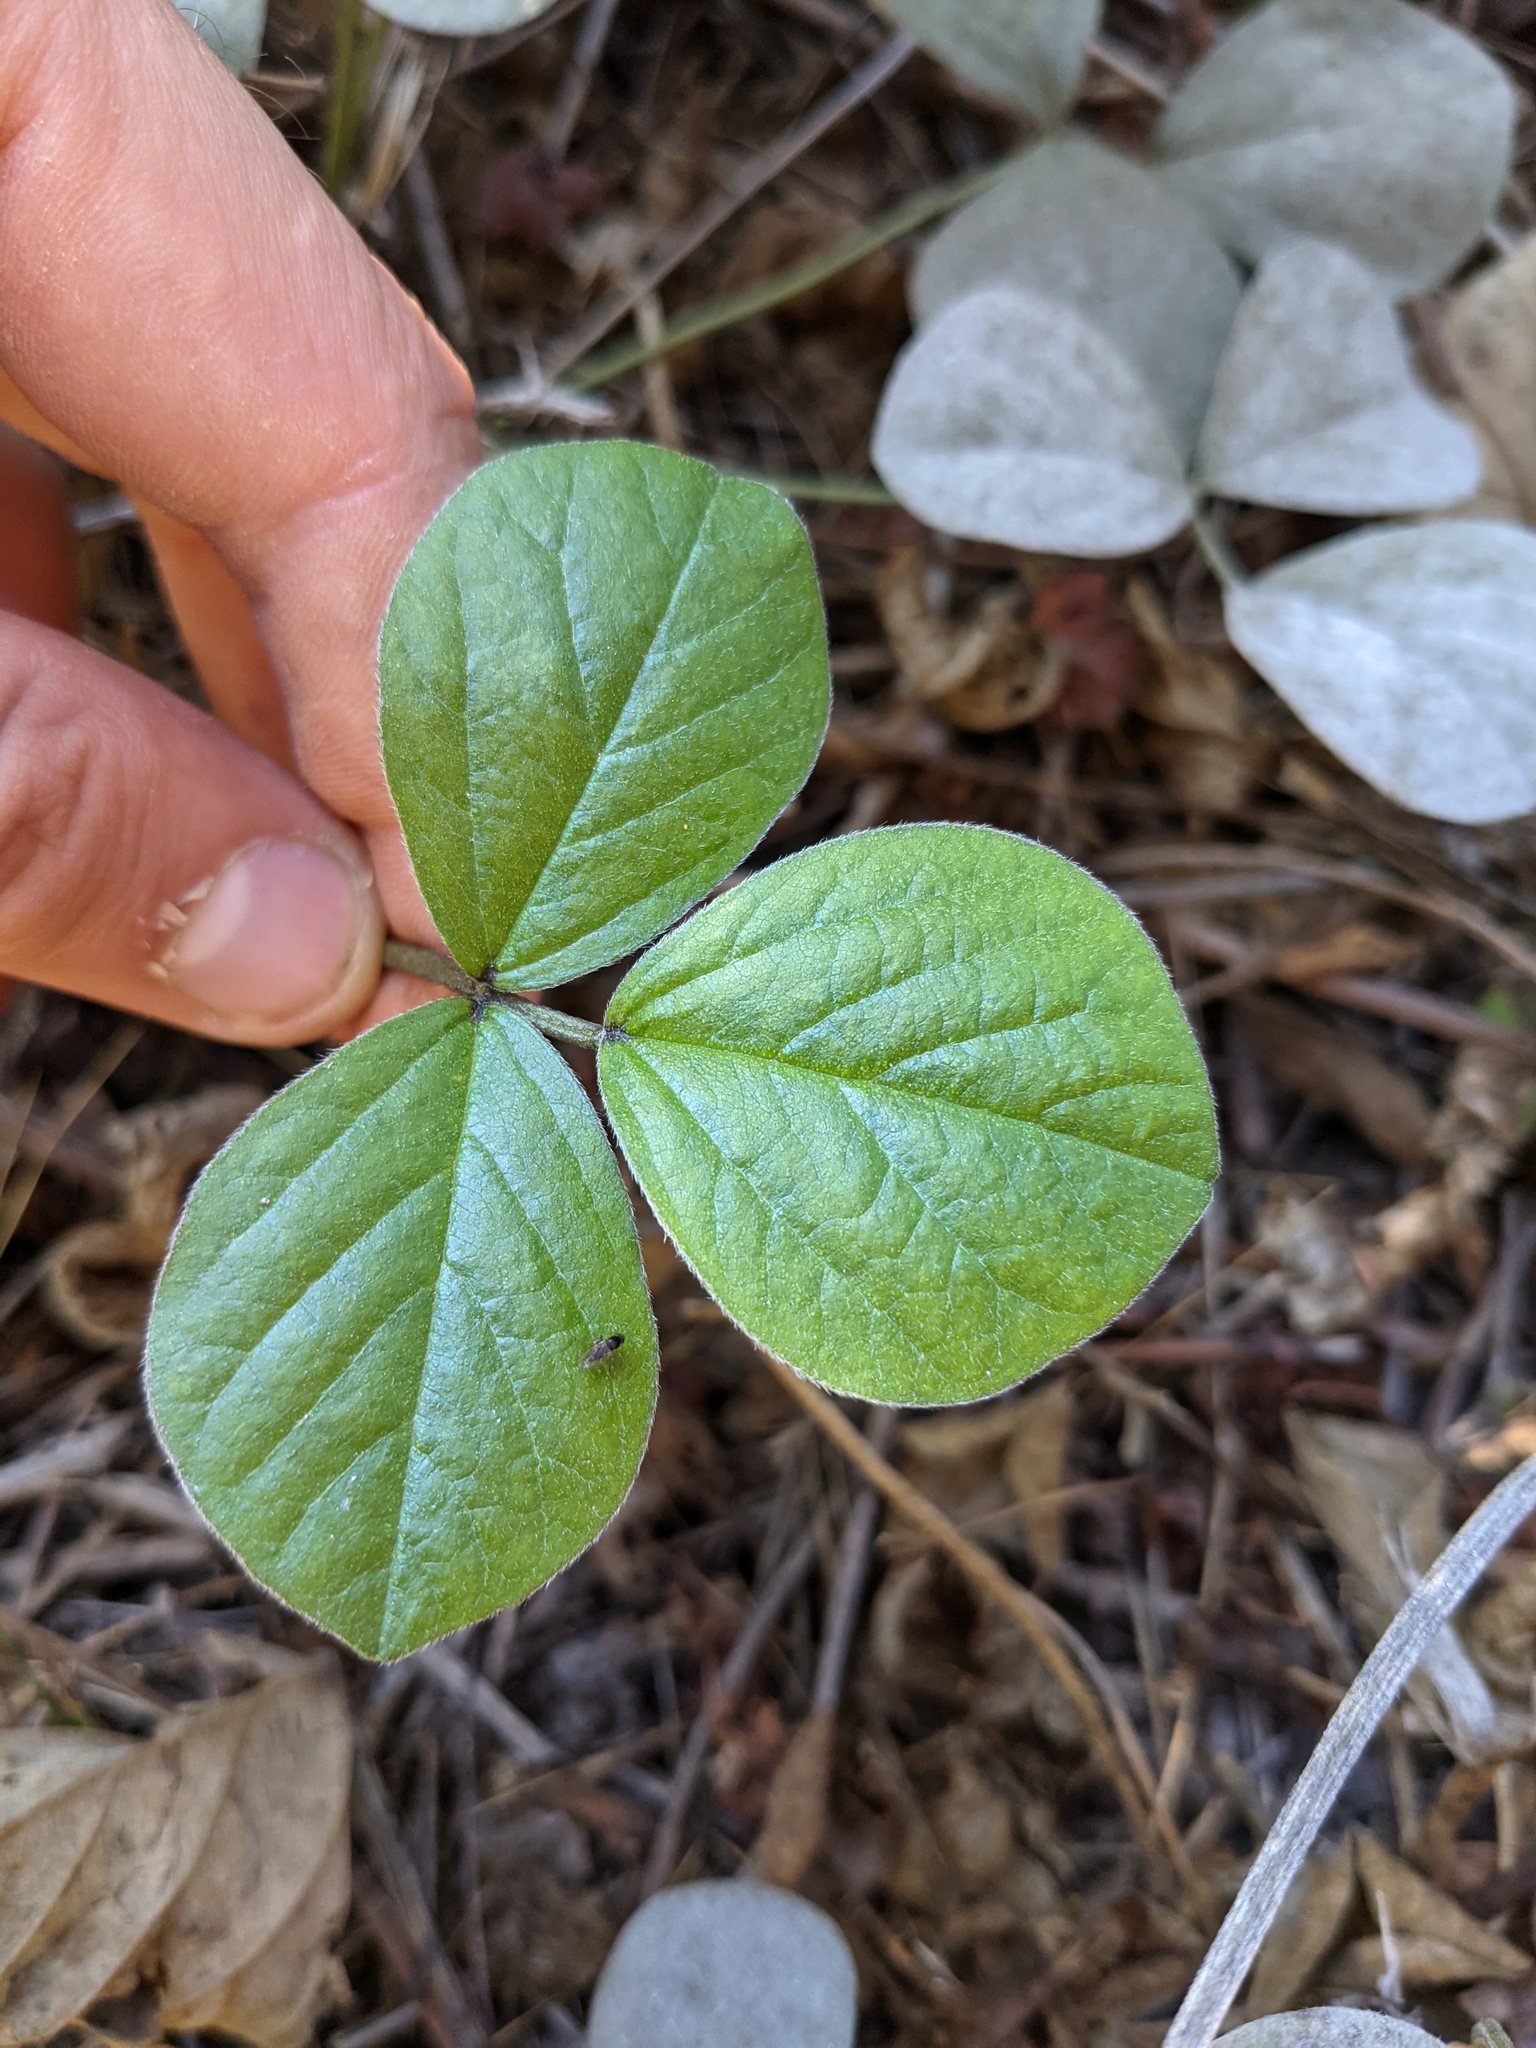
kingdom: Plantae
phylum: Tracheophyta
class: Magnoliopsida
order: Fabales
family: Fabaceae
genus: Hoita
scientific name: Hoita orbicularis
